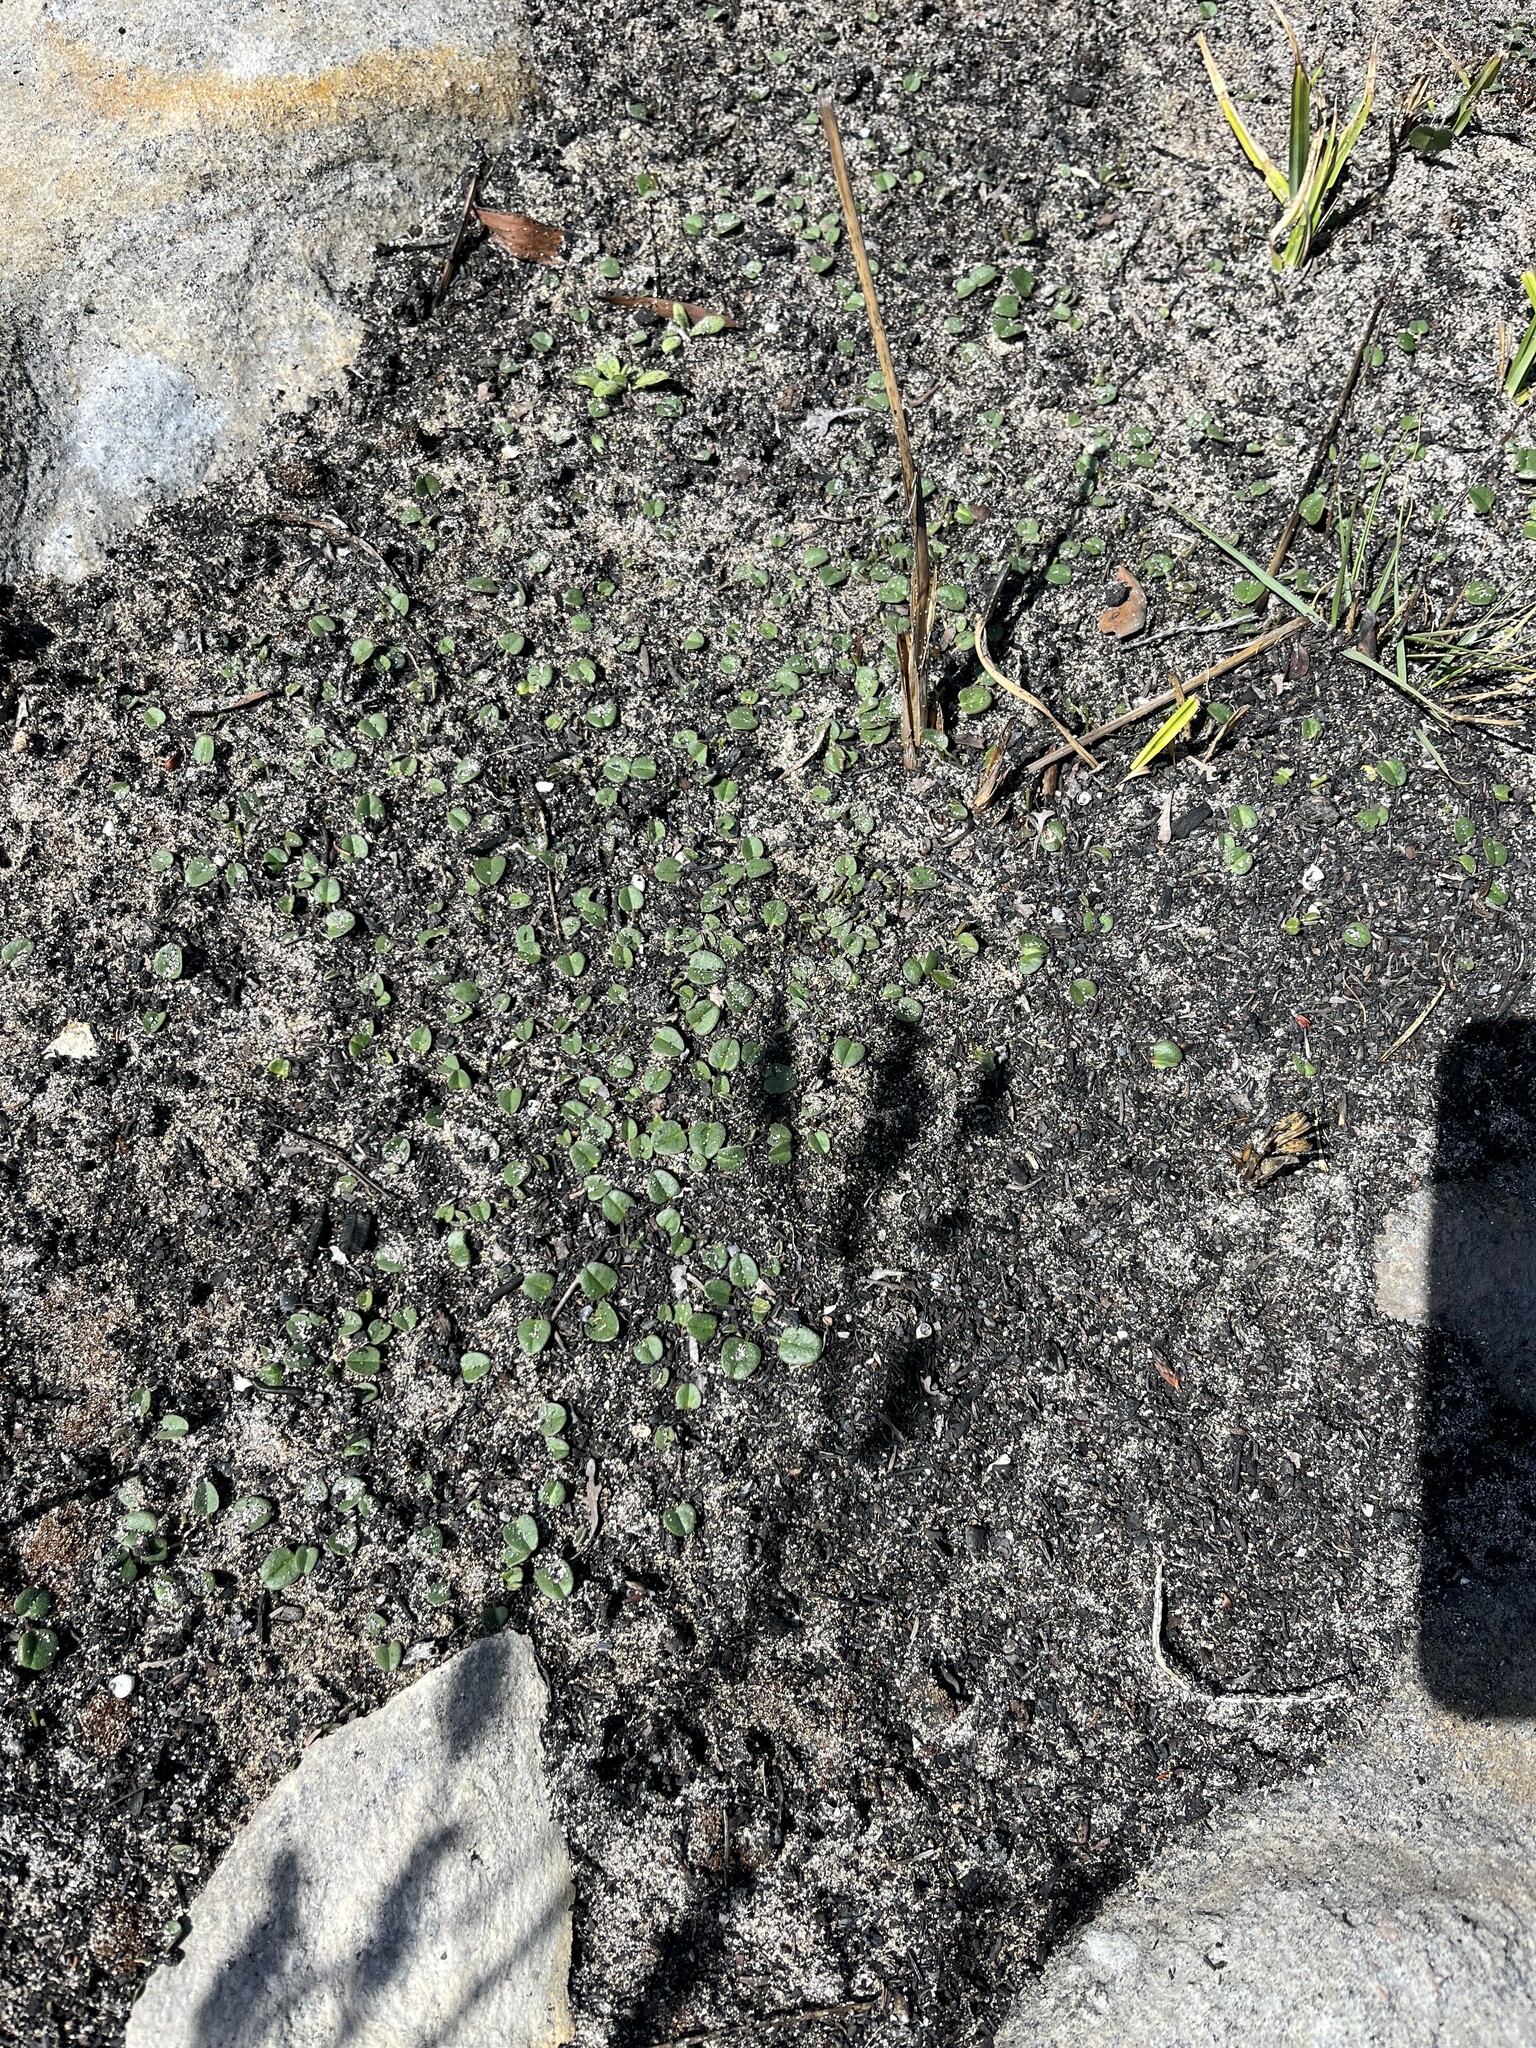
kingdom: Plantae
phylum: Tracheophyta
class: Magnoliopsida
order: Solanales
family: Convolvulaceae
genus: Falkia
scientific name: Falkia repens
